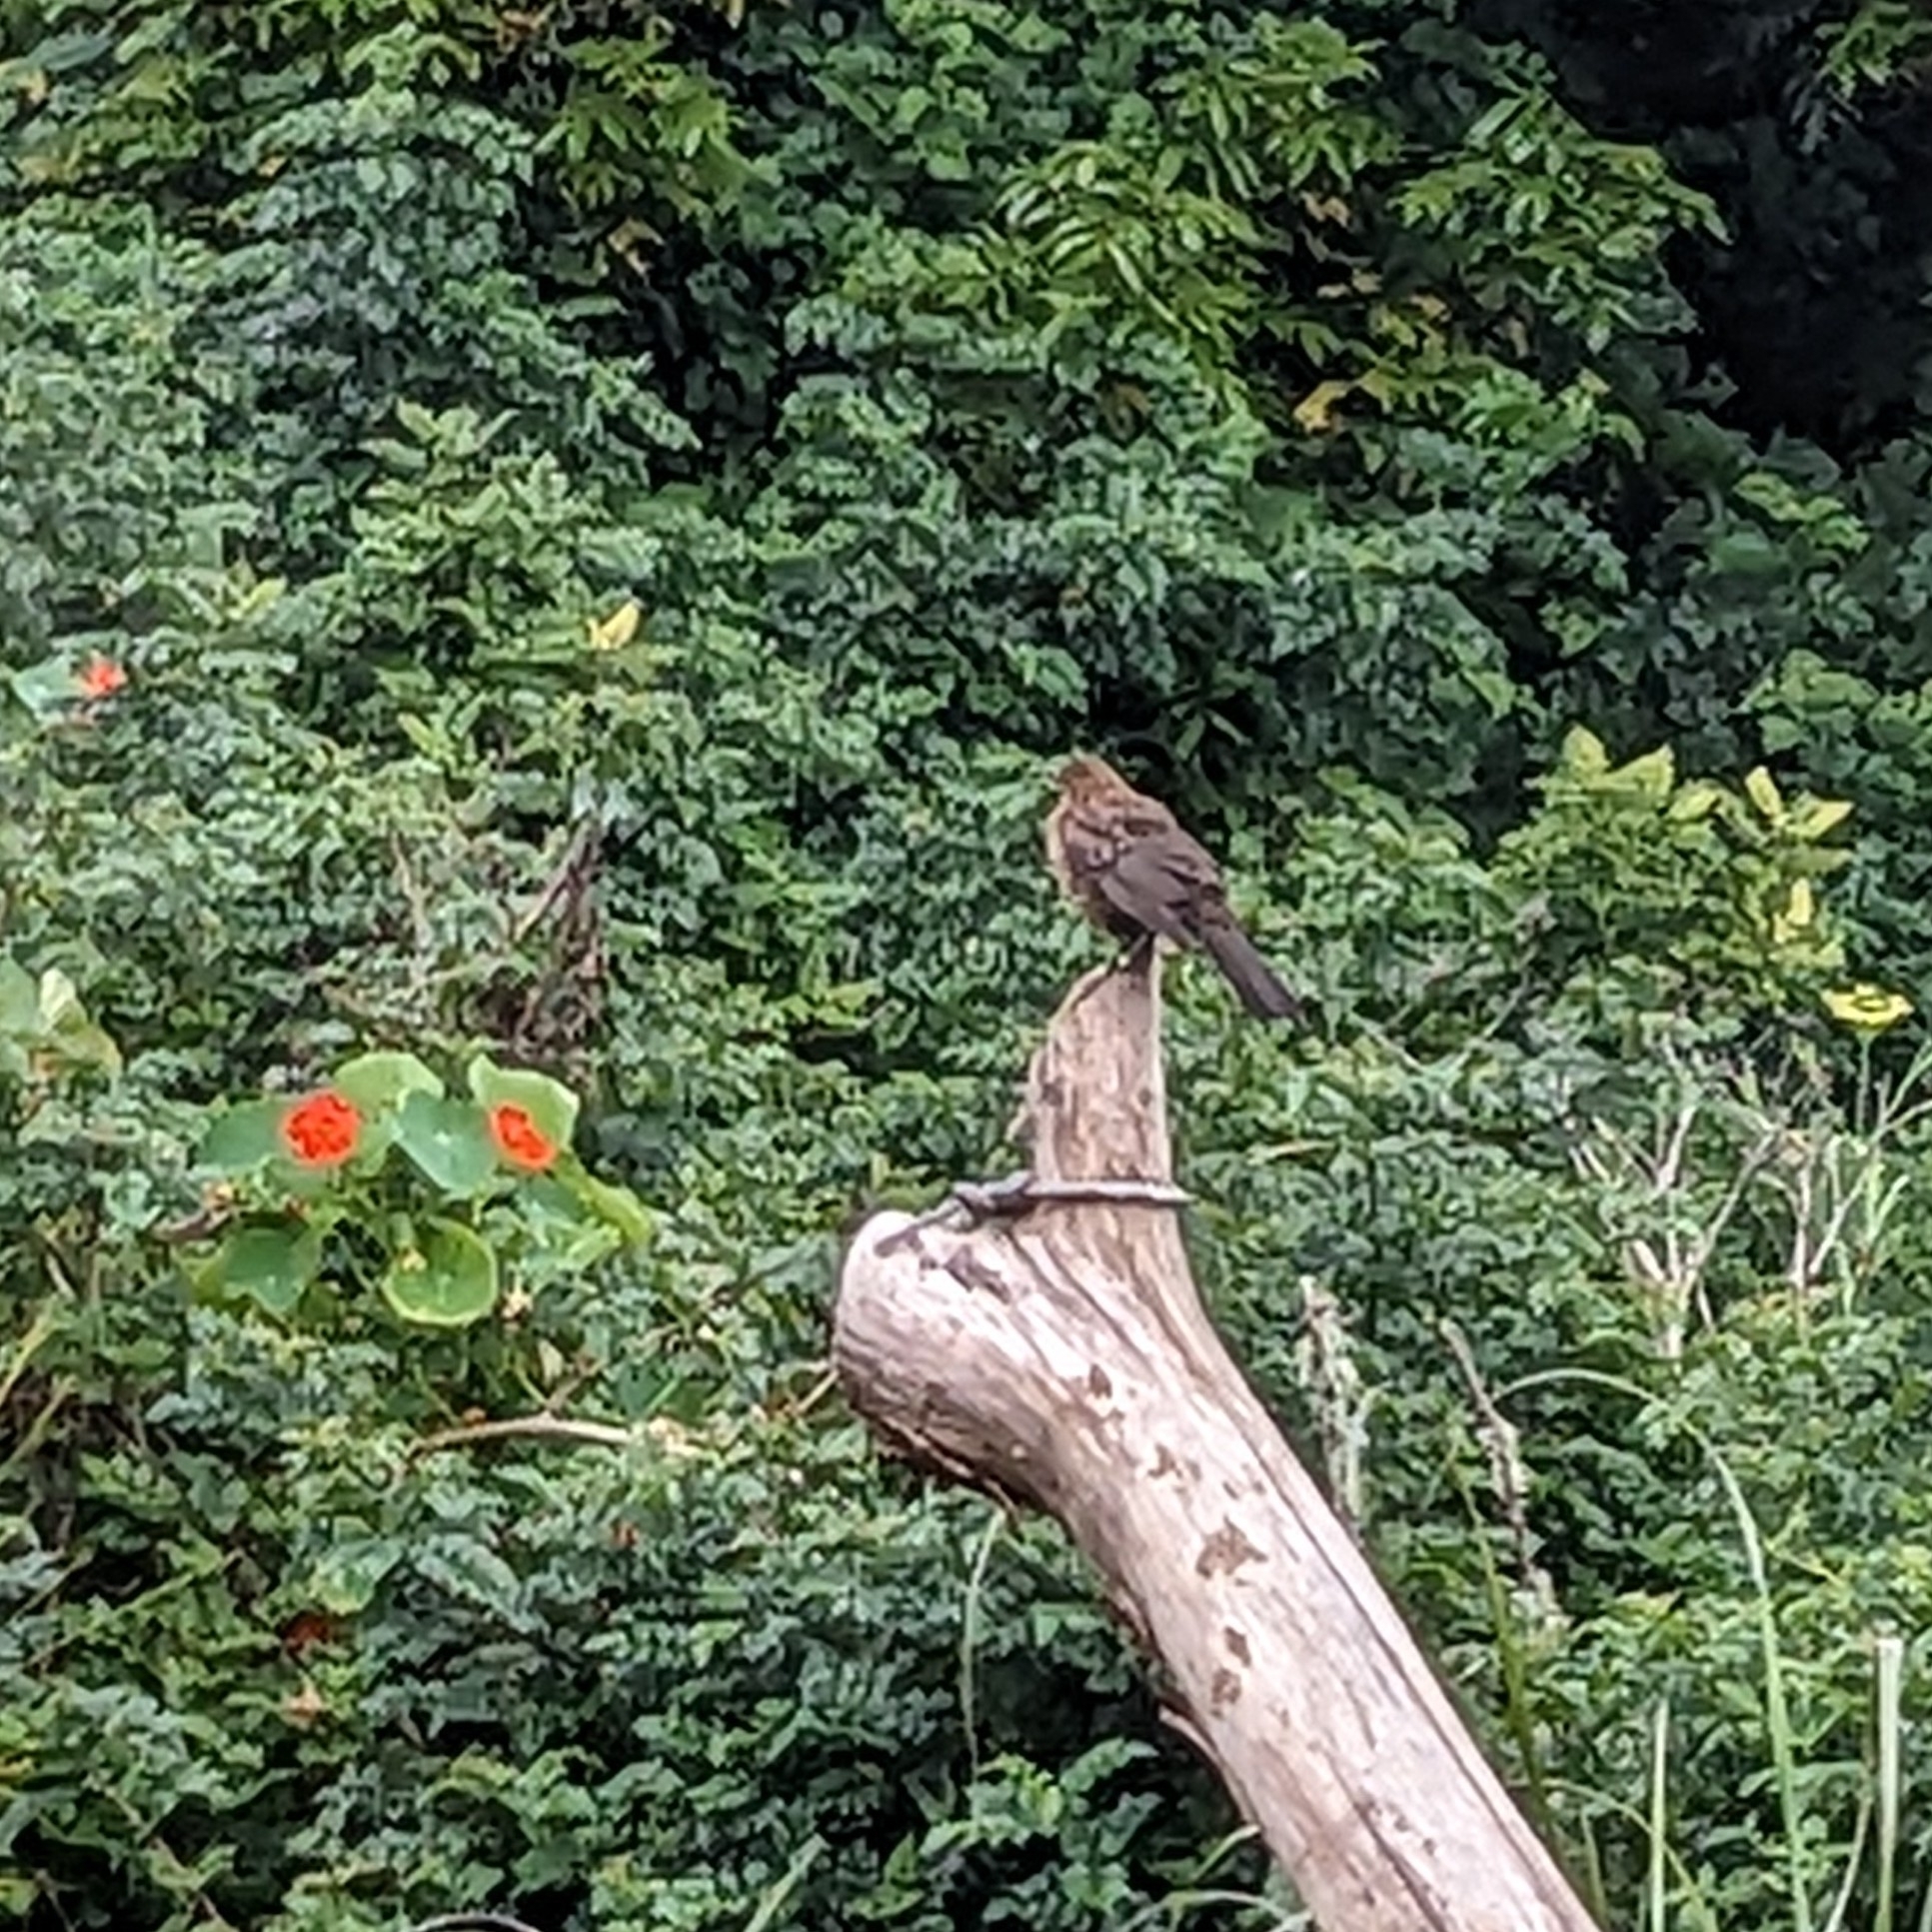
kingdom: Animalia
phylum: Chordata
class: Aves
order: Passeriformes
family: Turdidae
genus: Turdus
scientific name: Turdus merula
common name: Common blackbird
